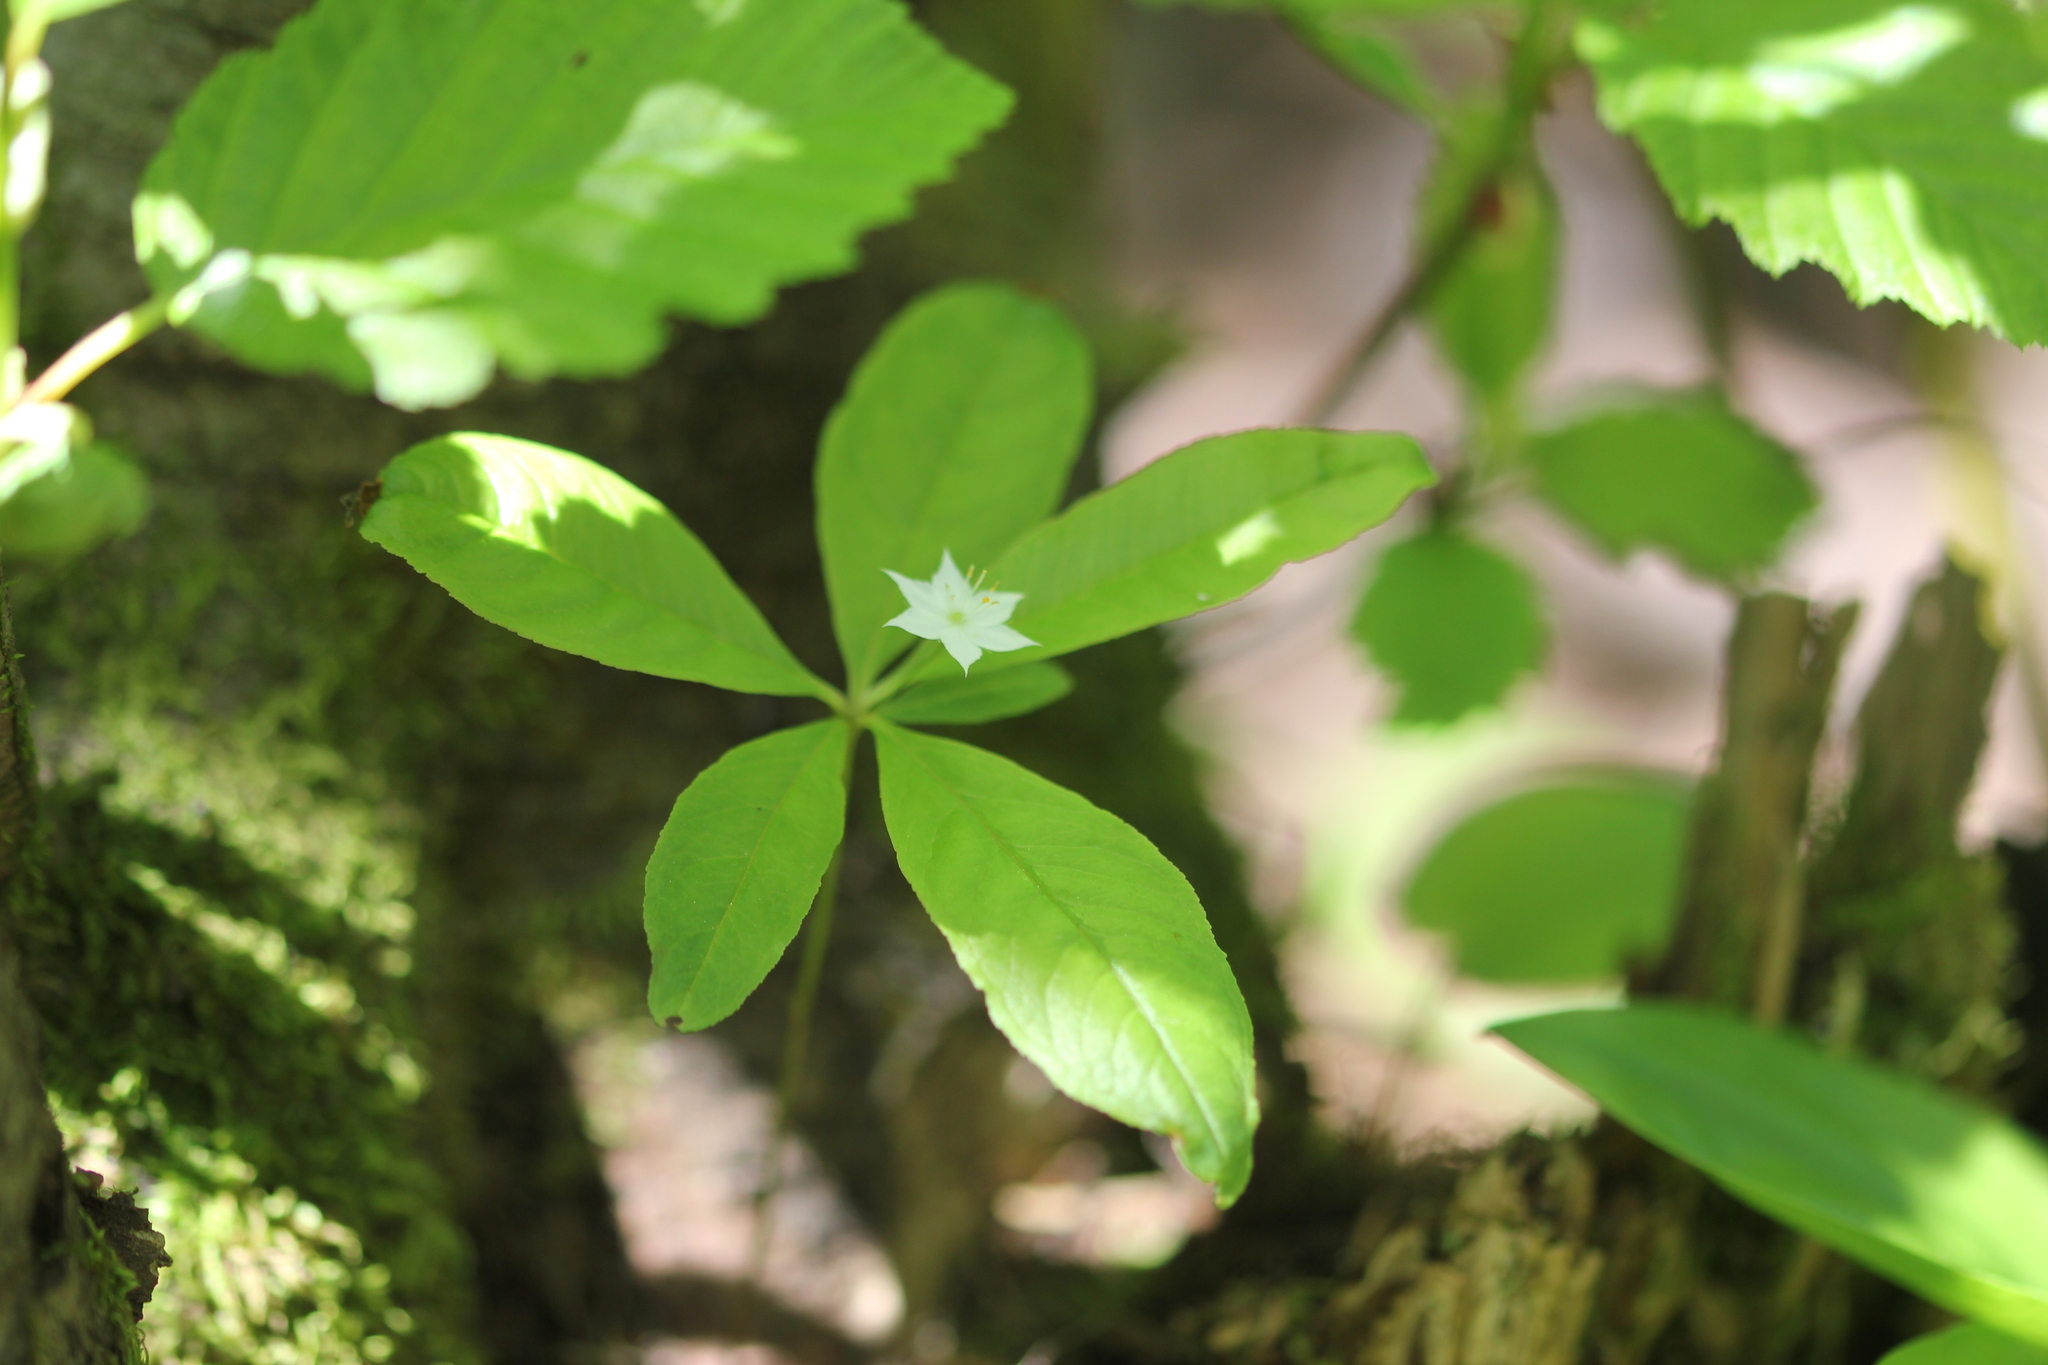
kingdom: Plantae
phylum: Tracheophyta
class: Magnoliopsida
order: Ericales
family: Primulaceae
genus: Lysimachia
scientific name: Lysimachia borealis
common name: American starflower
